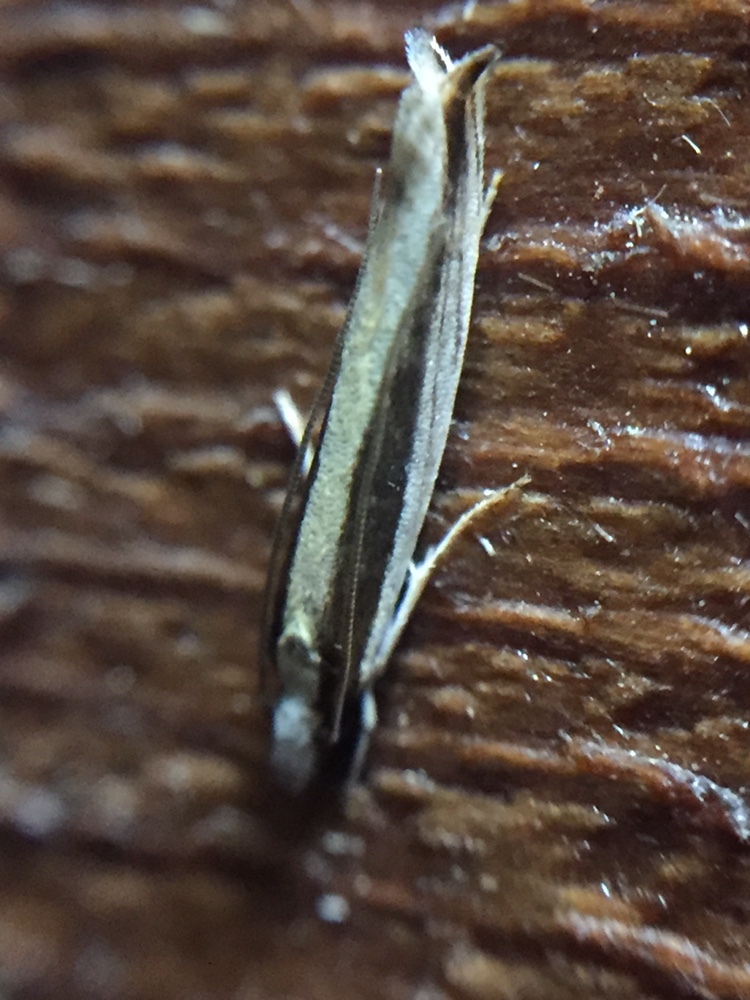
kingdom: Animalia
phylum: Arthropoda
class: Insecta
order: Lepidoptera
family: Tineidae
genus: Erechthias
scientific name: Erechthias stilbella
